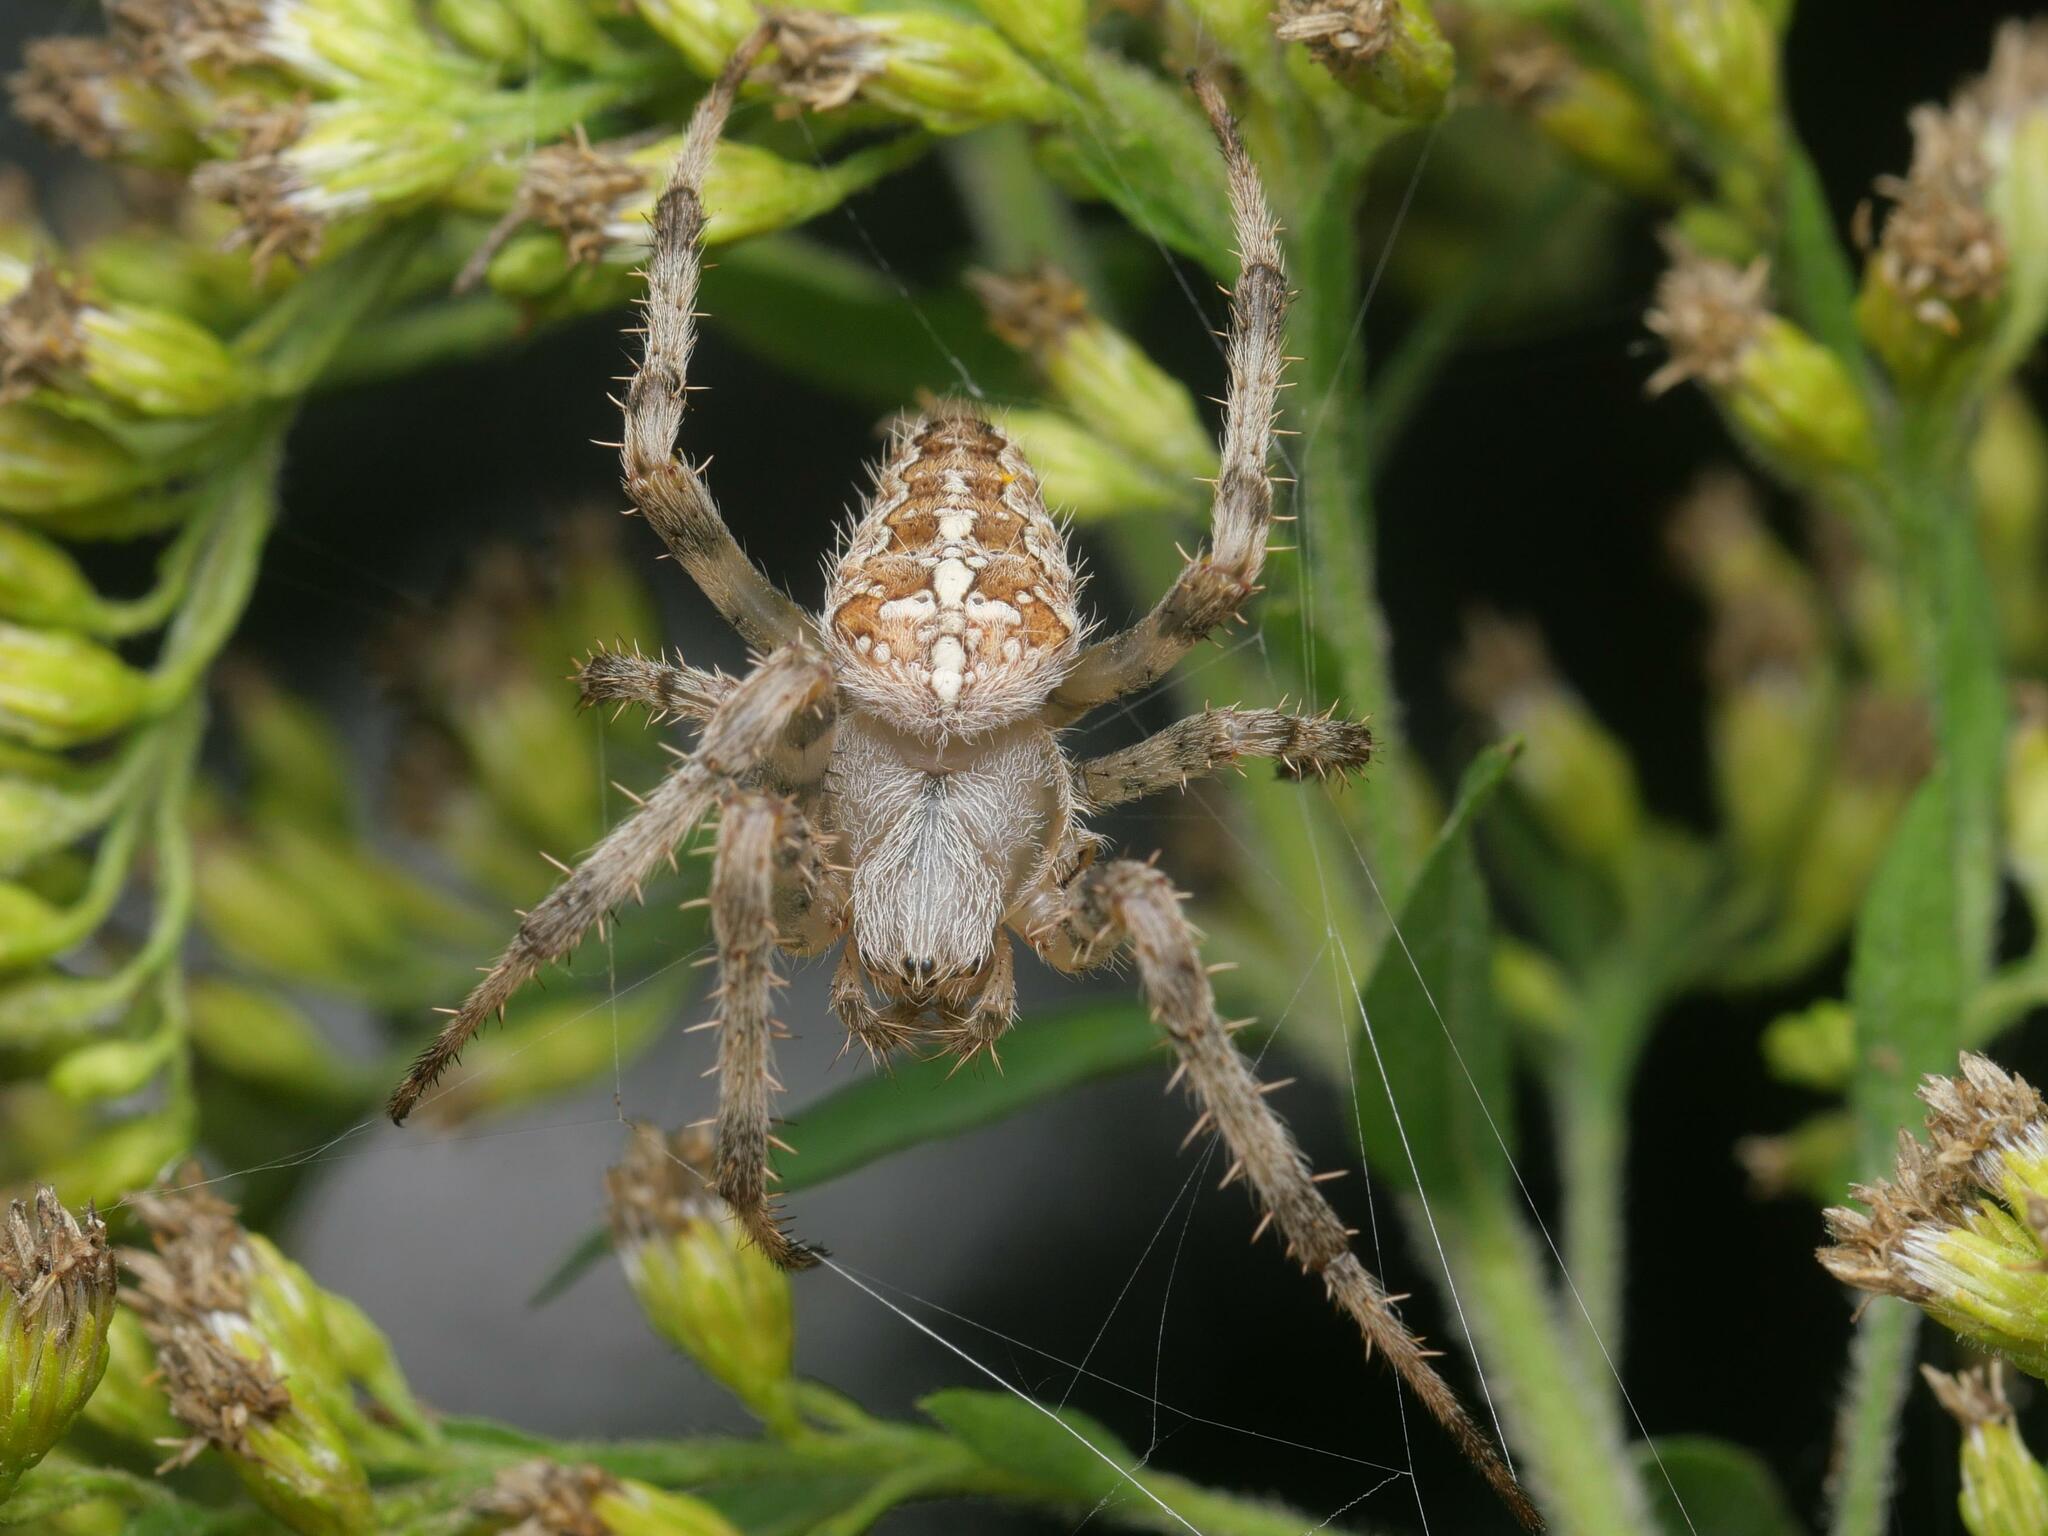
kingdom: Animalia
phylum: Arthropoda
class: Arachnida
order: Araneae
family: Araneidae
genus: Araneus
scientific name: Araneus diadematus
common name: Cross orbweaver
